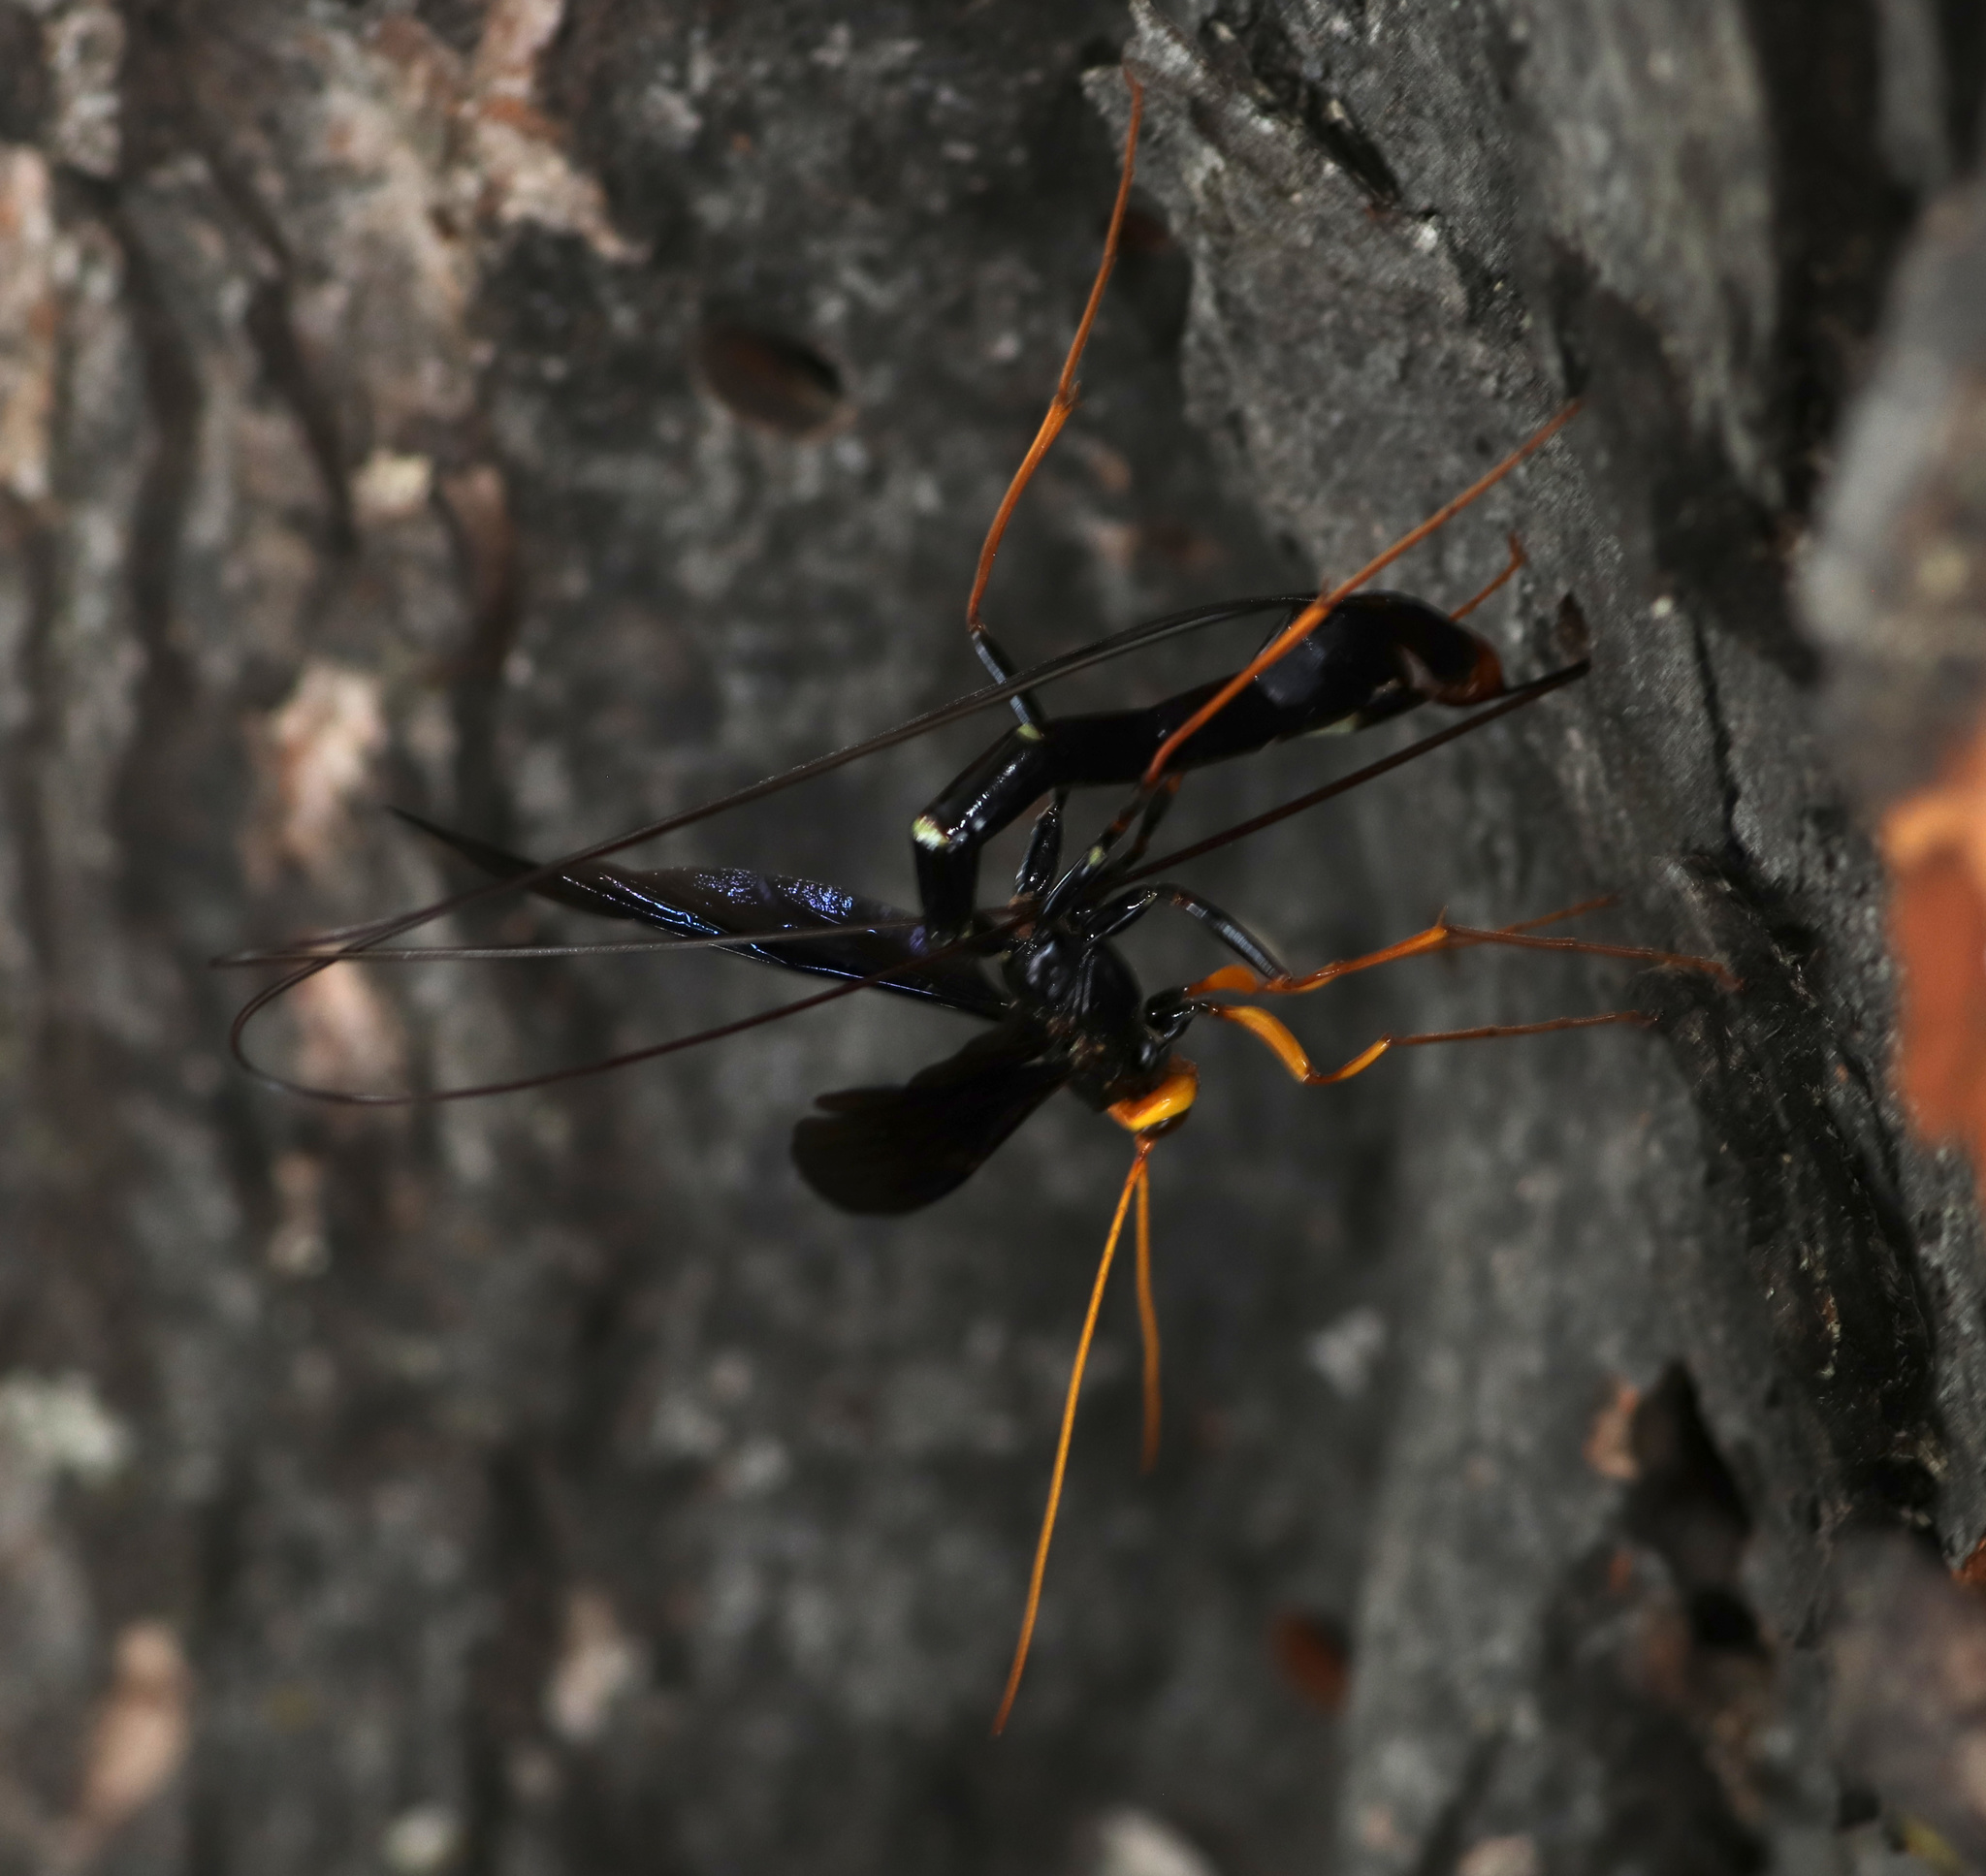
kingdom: Animalia
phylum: Arthropoda
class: Insecta
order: Hymenoptera
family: Ichneumonidae
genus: Megarhyssa
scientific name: Megarhyssa atrata
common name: Black giant ichneumonid wasp
